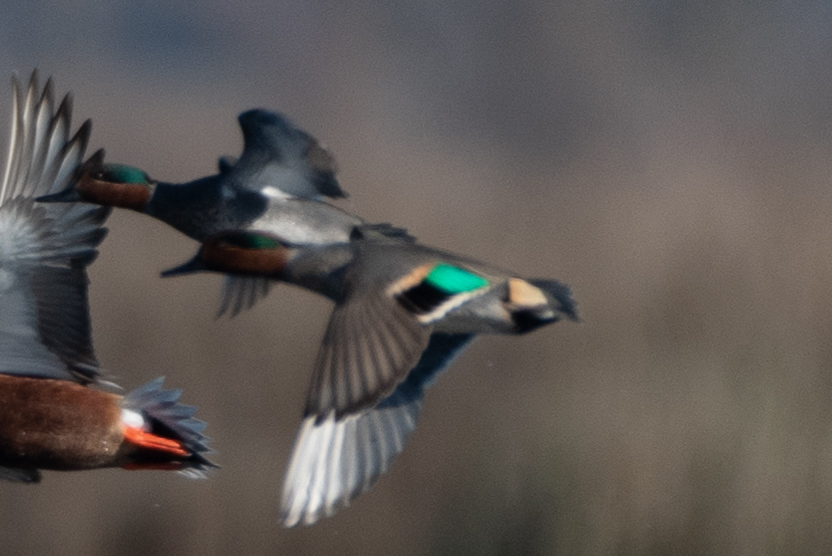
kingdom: Animalia
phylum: Chordata
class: Aves
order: Anseriformes
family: Anatidae
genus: Anas
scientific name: Anas crecca
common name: Eurasian teal
